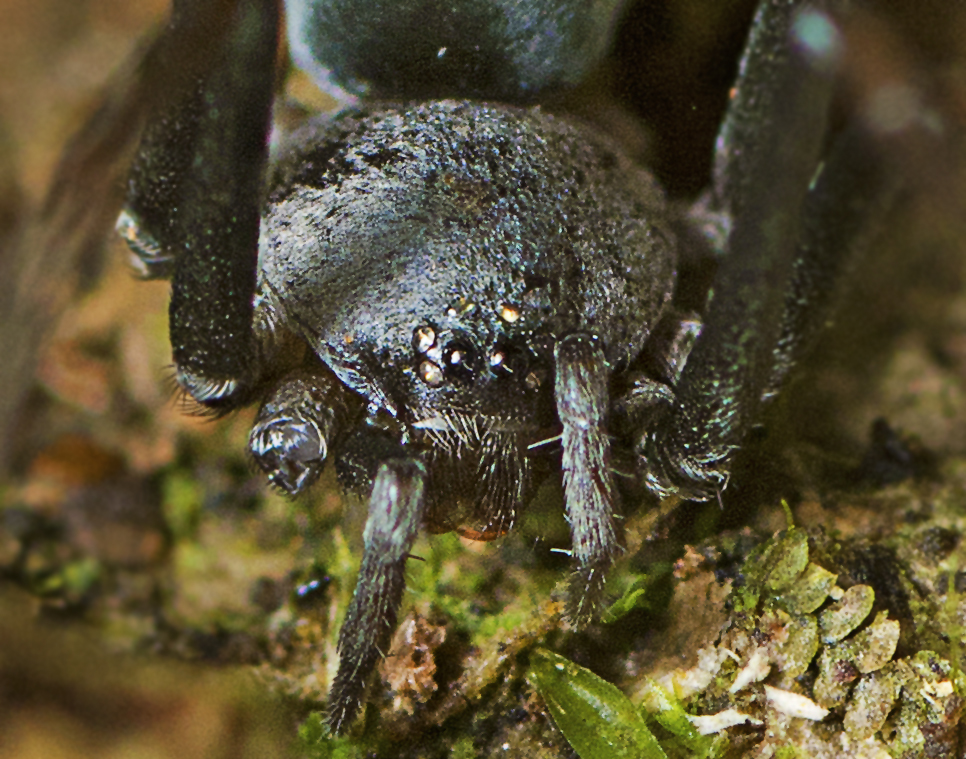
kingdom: Animalia
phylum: Arthropoda
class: Arachnida
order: Araneae
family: Gnaphosidae
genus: Molycria
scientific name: Molycria burwelli
